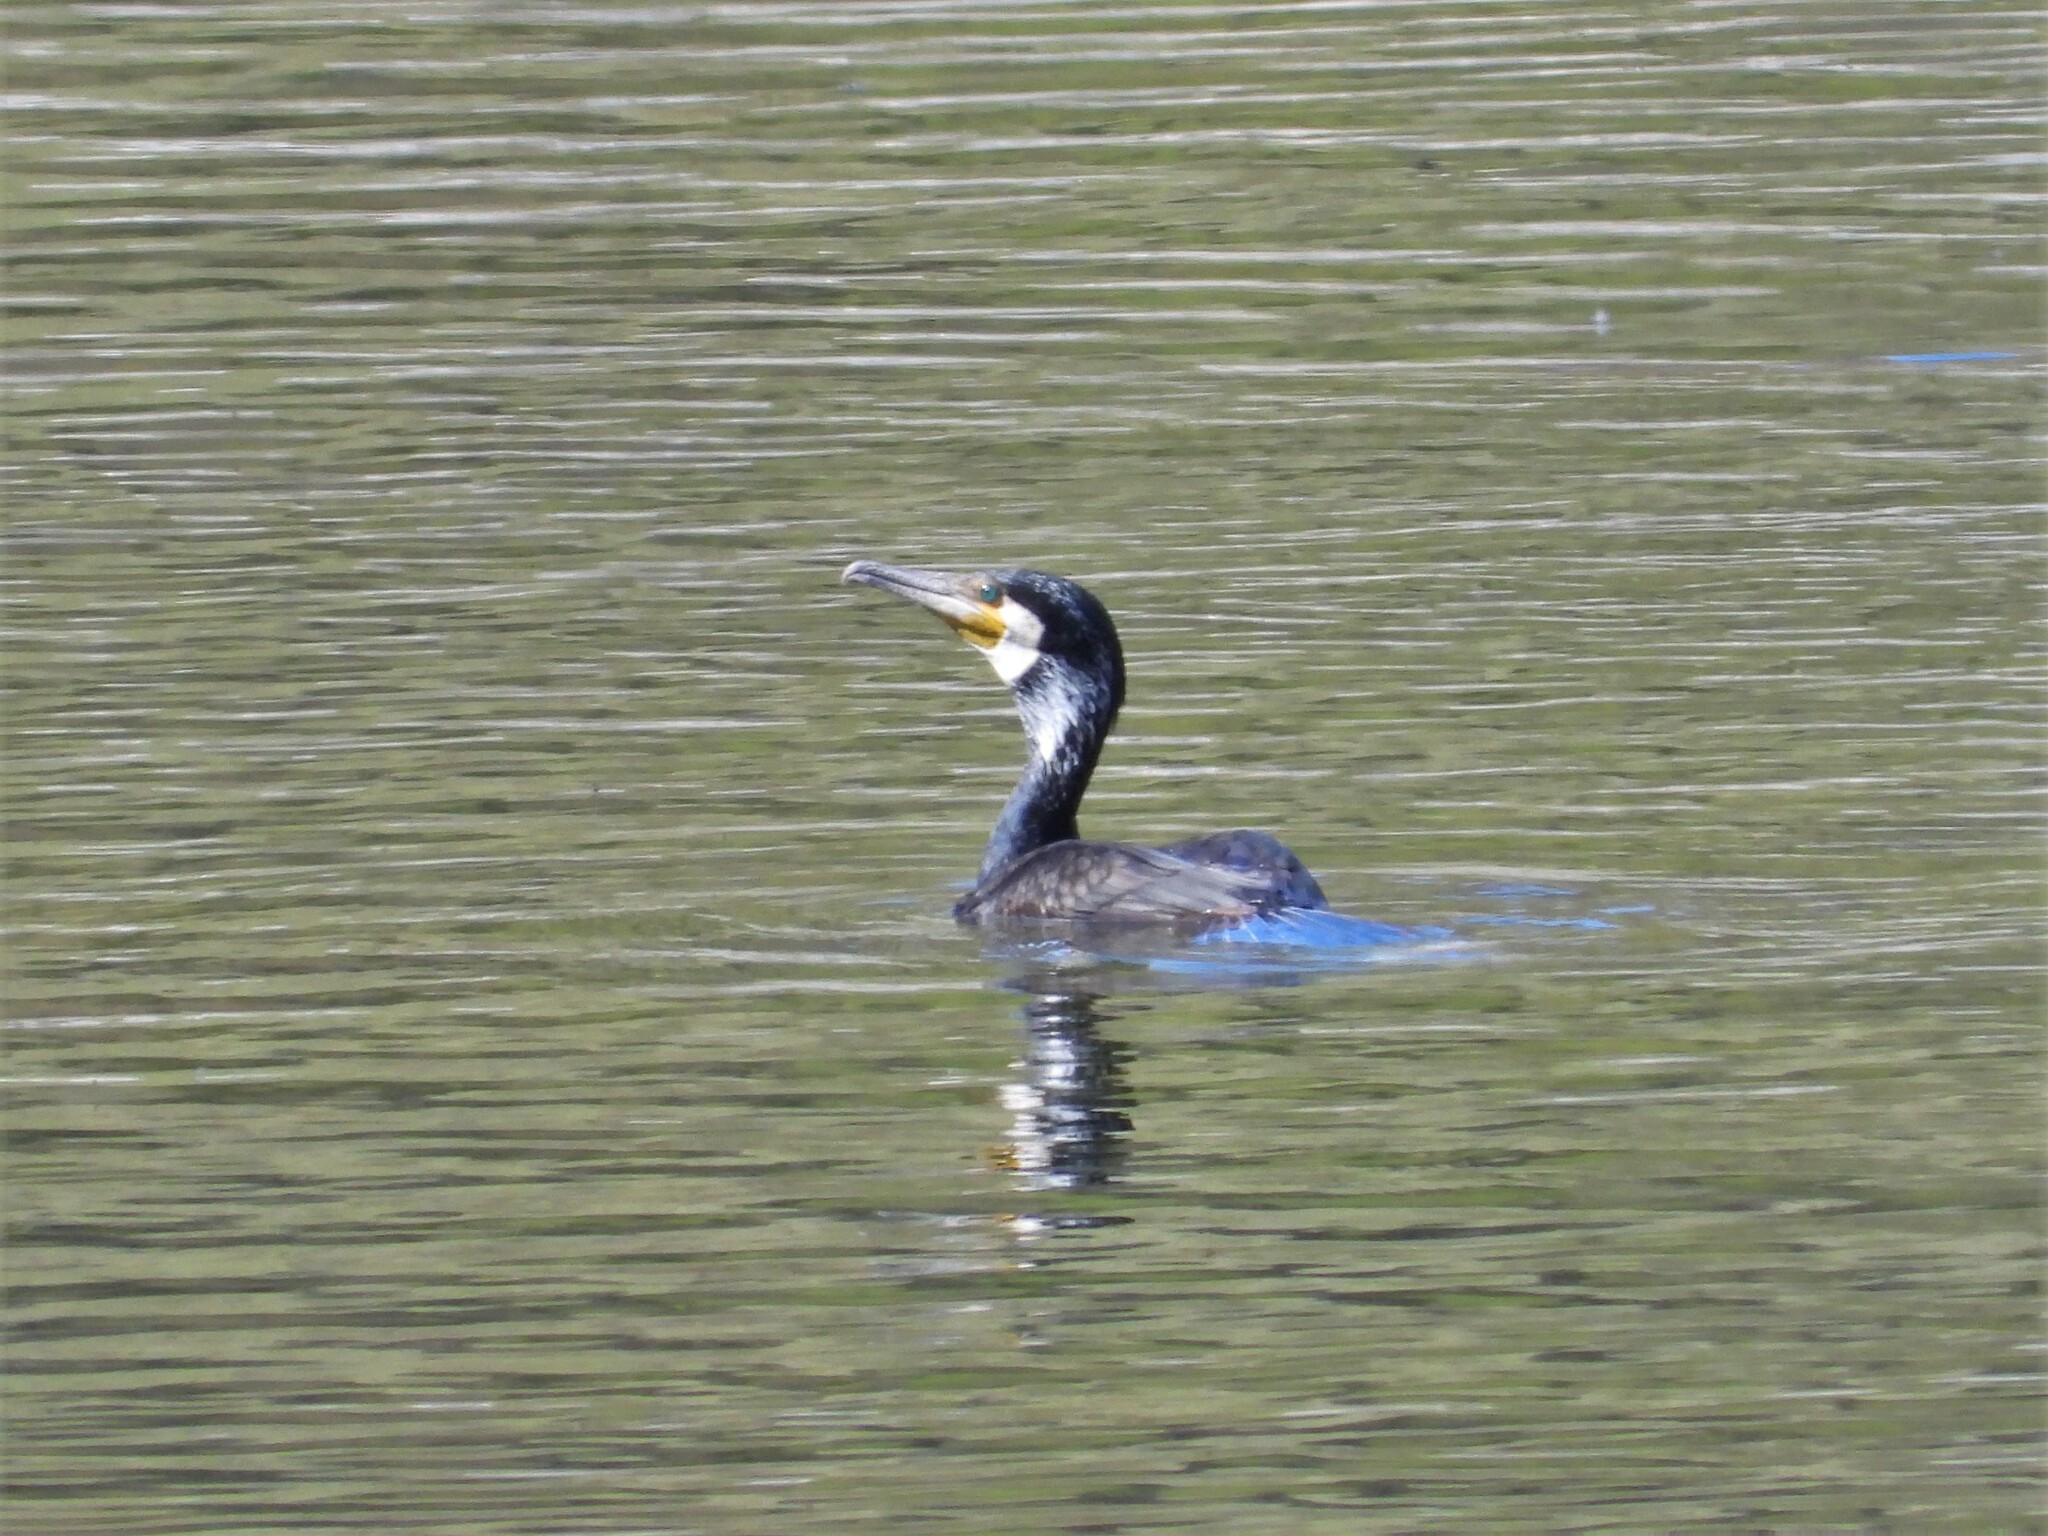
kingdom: Animalia
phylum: Chordata
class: Aves
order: Suliformes
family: Phalacrocoracidae
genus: Phalacrocorax
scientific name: Phalacrocorax carbo
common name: Great cormorant
